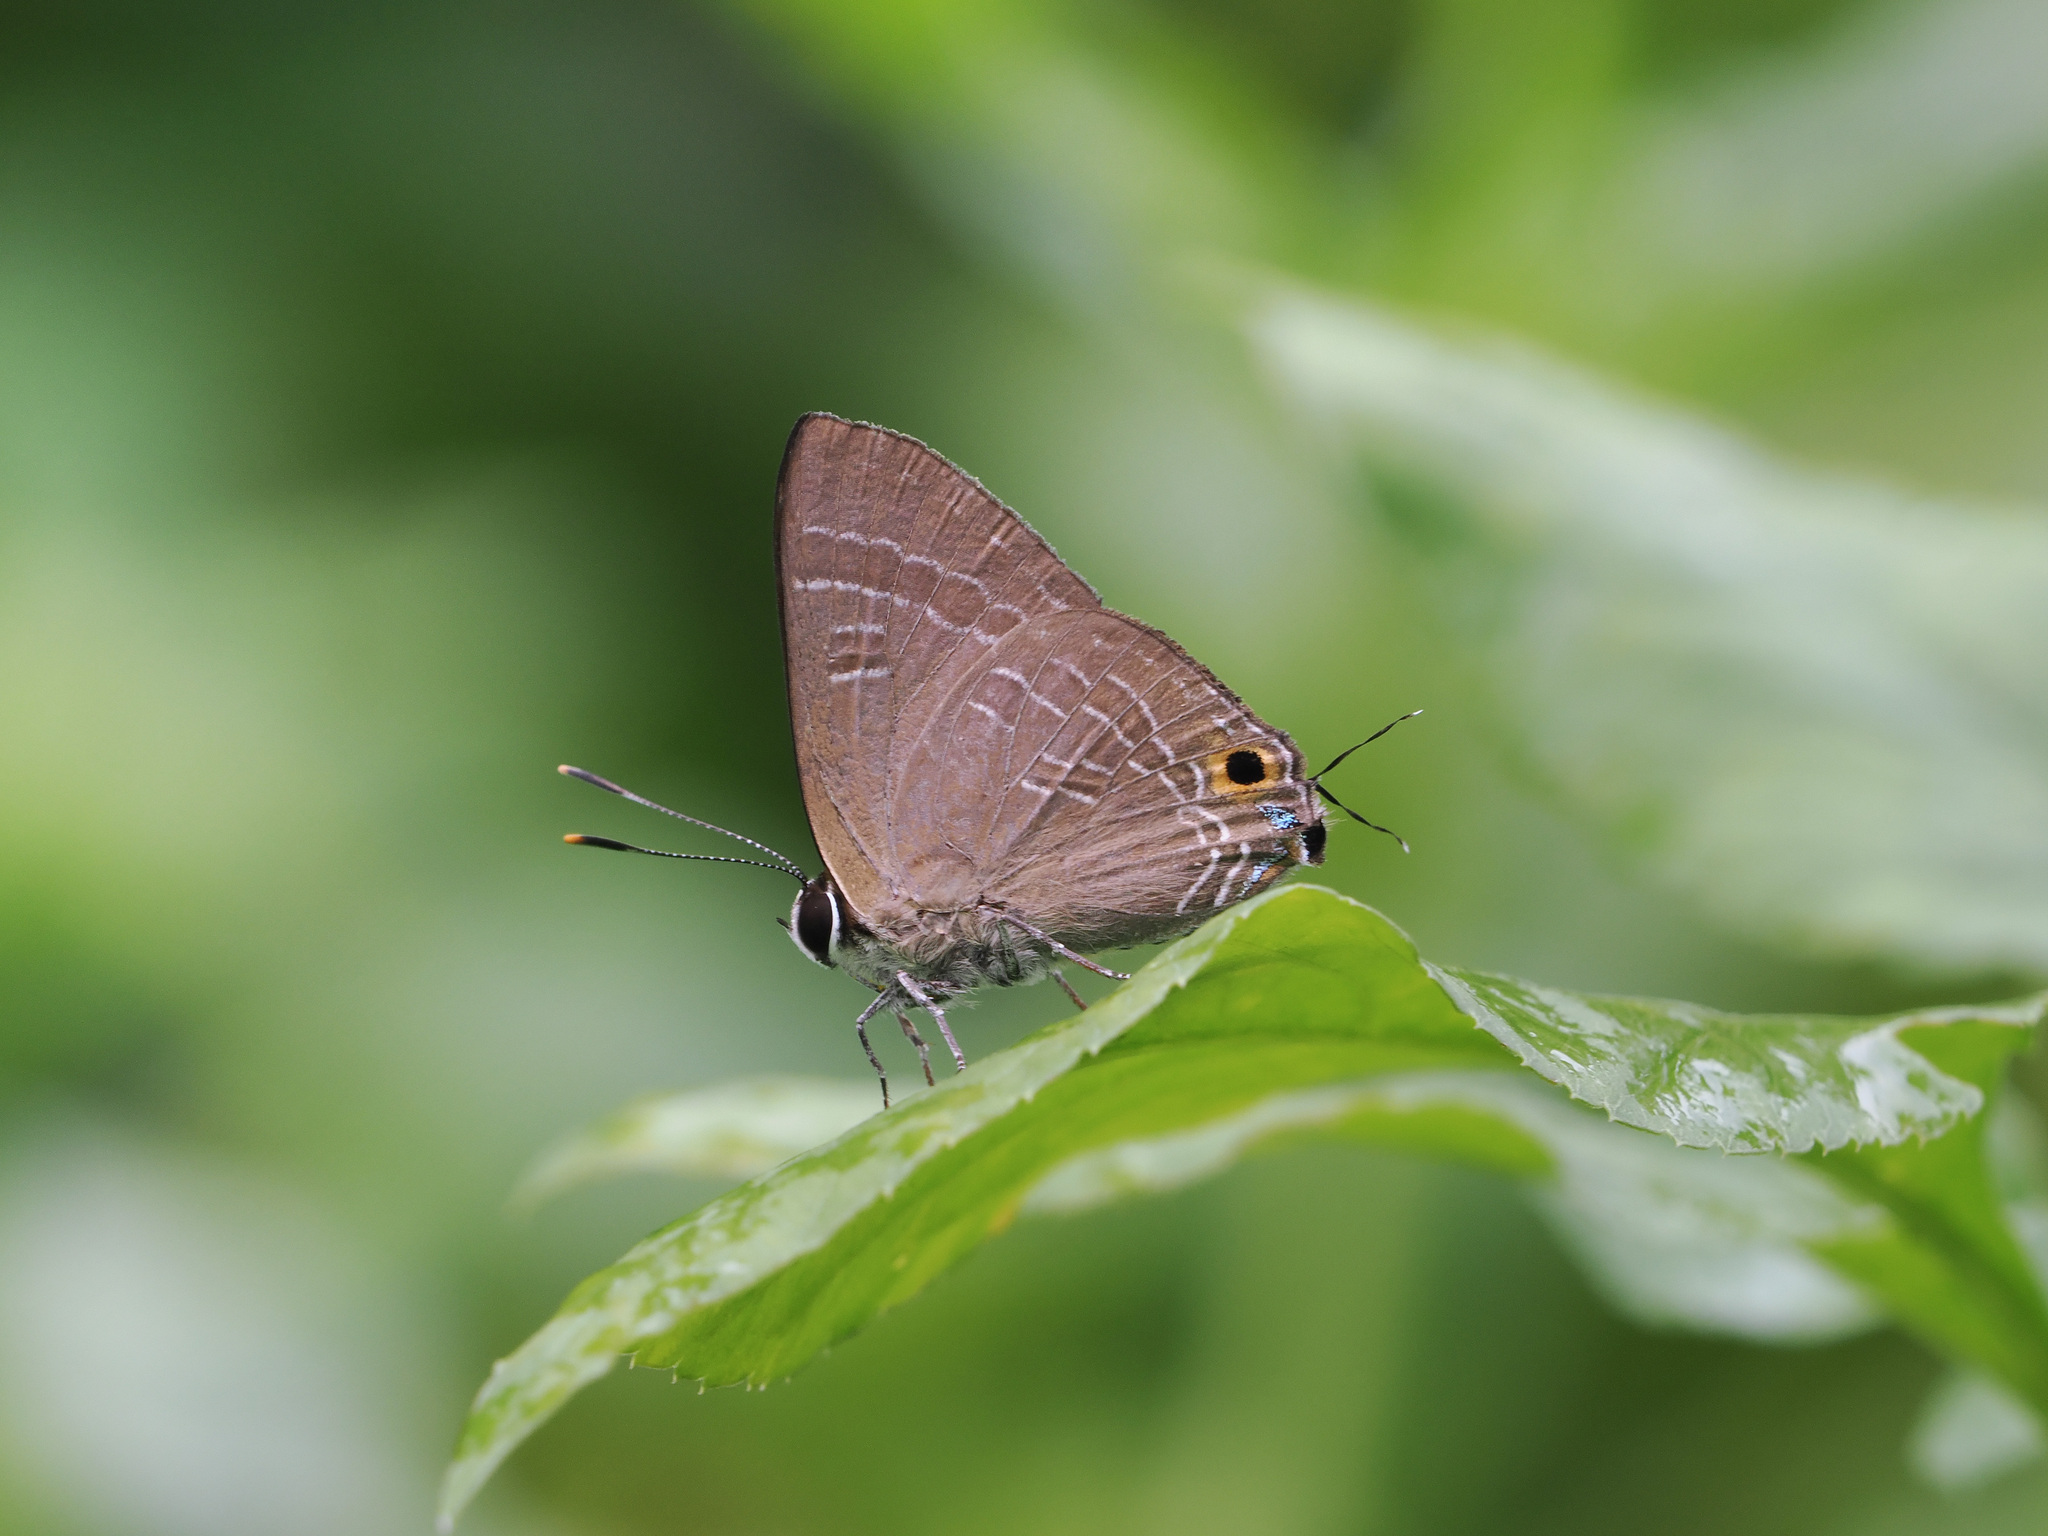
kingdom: Animalia
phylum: Arthropoda
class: Insecta
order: Lepidoptera
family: Lycaenidae
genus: Deudorix
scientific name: Deudorix epijarbas
